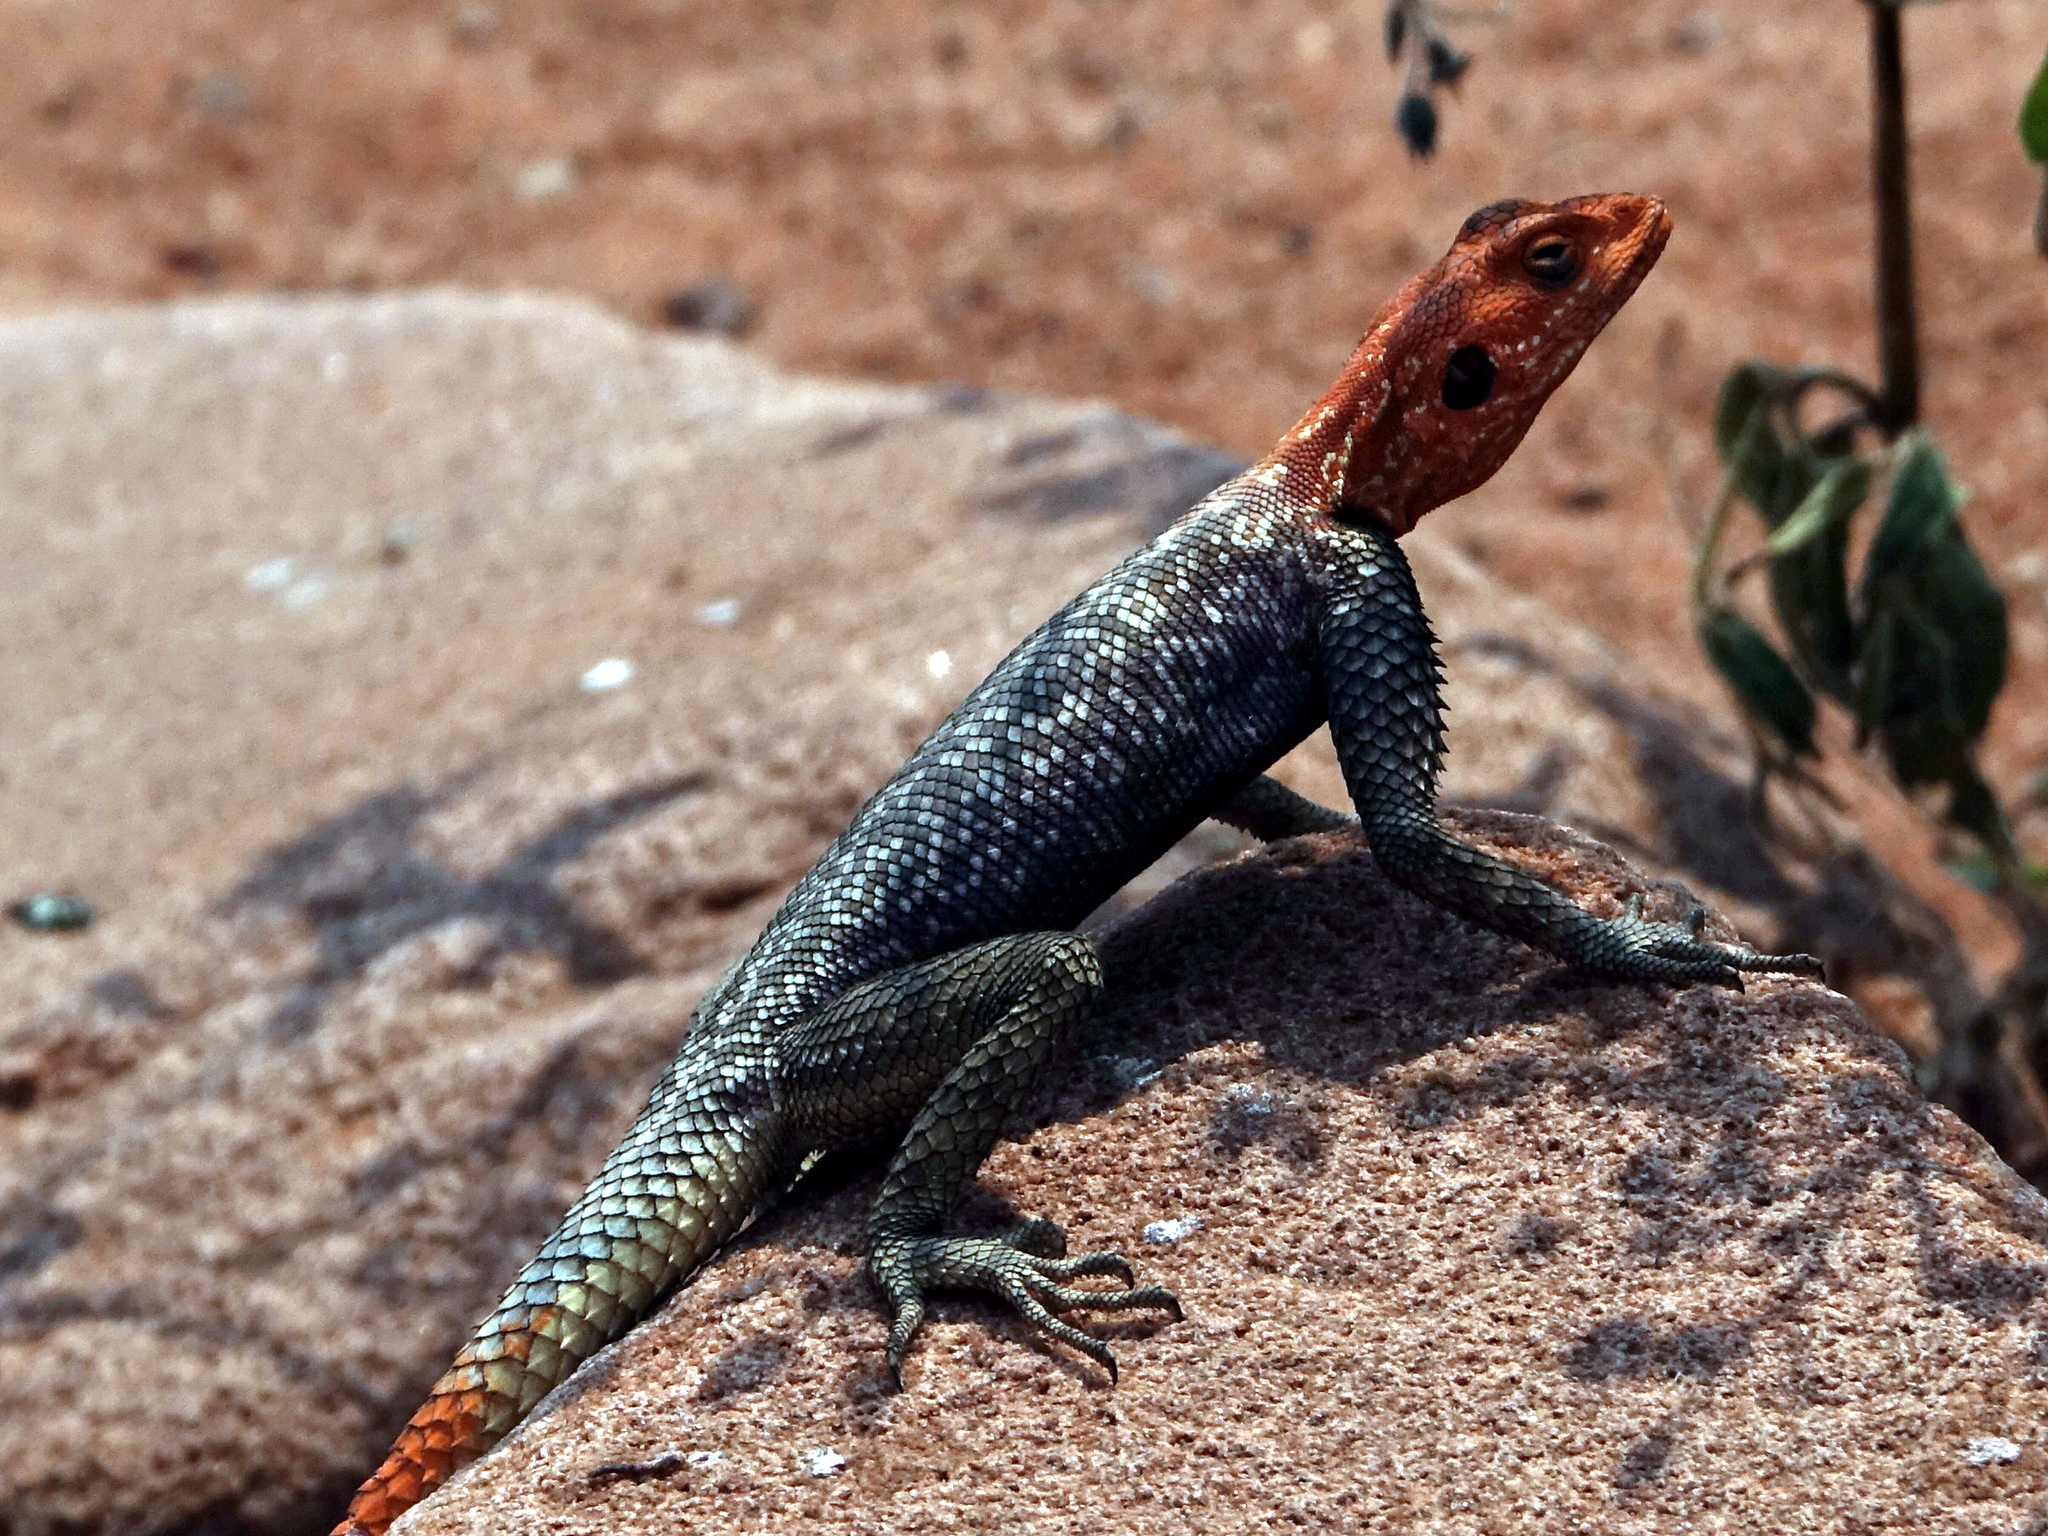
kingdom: Animalia
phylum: Chordata
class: Squamata
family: Agamidae
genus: Agama
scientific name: Agama planiceps
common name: Namib rock agama
